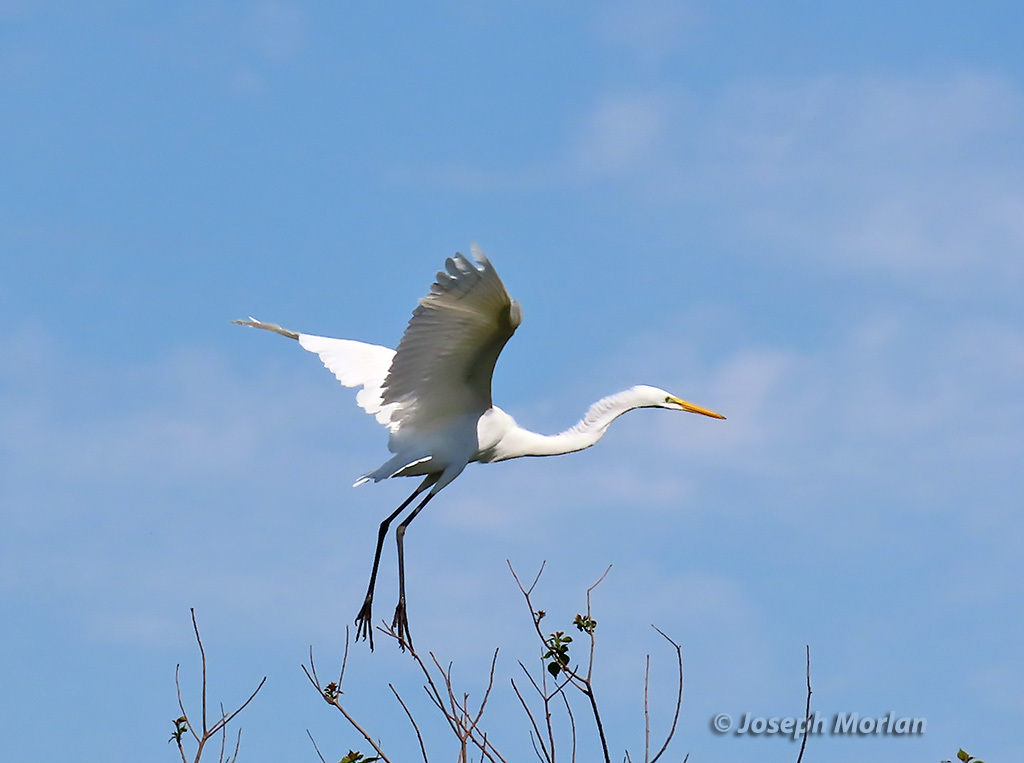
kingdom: Animalia
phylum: Chordata
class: Aves
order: Pelecaniformes
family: Ardeidae
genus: Ardea
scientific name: Ardea alba
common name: Great egret
